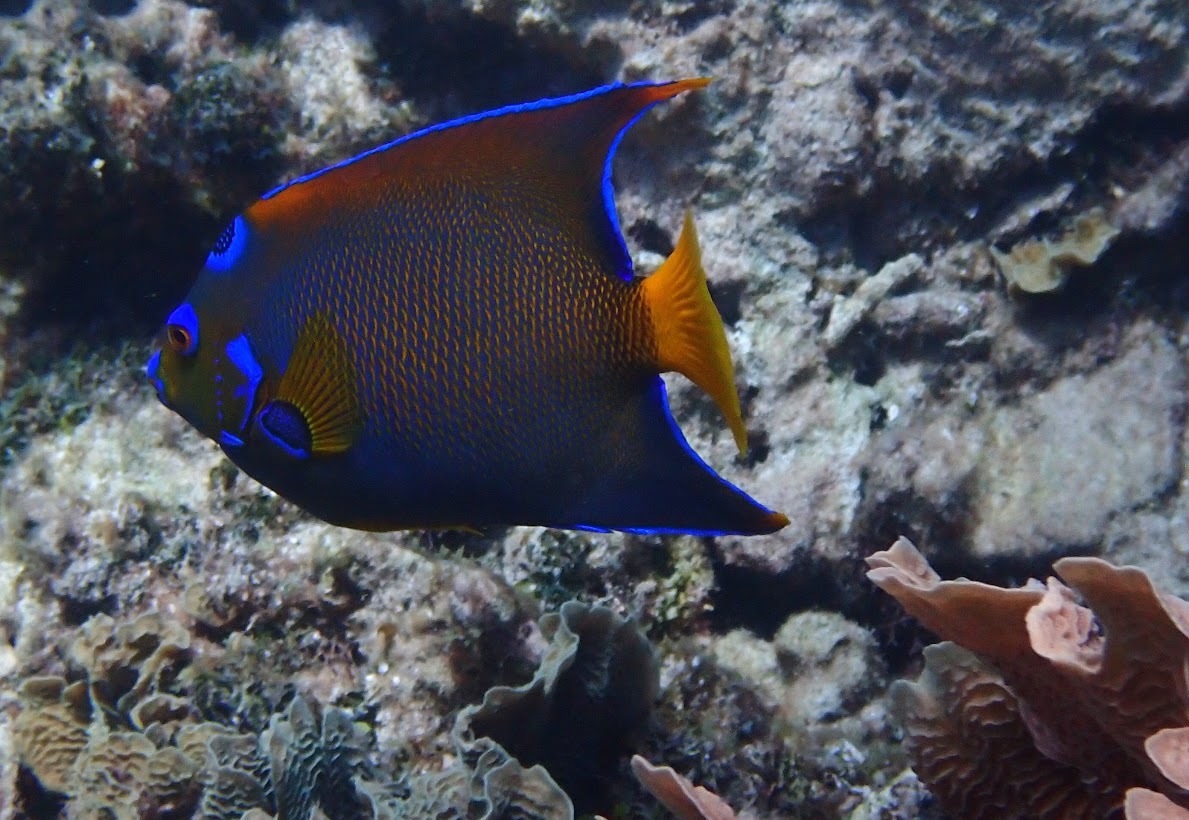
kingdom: Animalia
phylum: Chordata
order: Perciformes
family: Pomacanthidae
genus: Holacanthus
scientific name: Holacanthus ciliaris
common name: Queen angelfish
